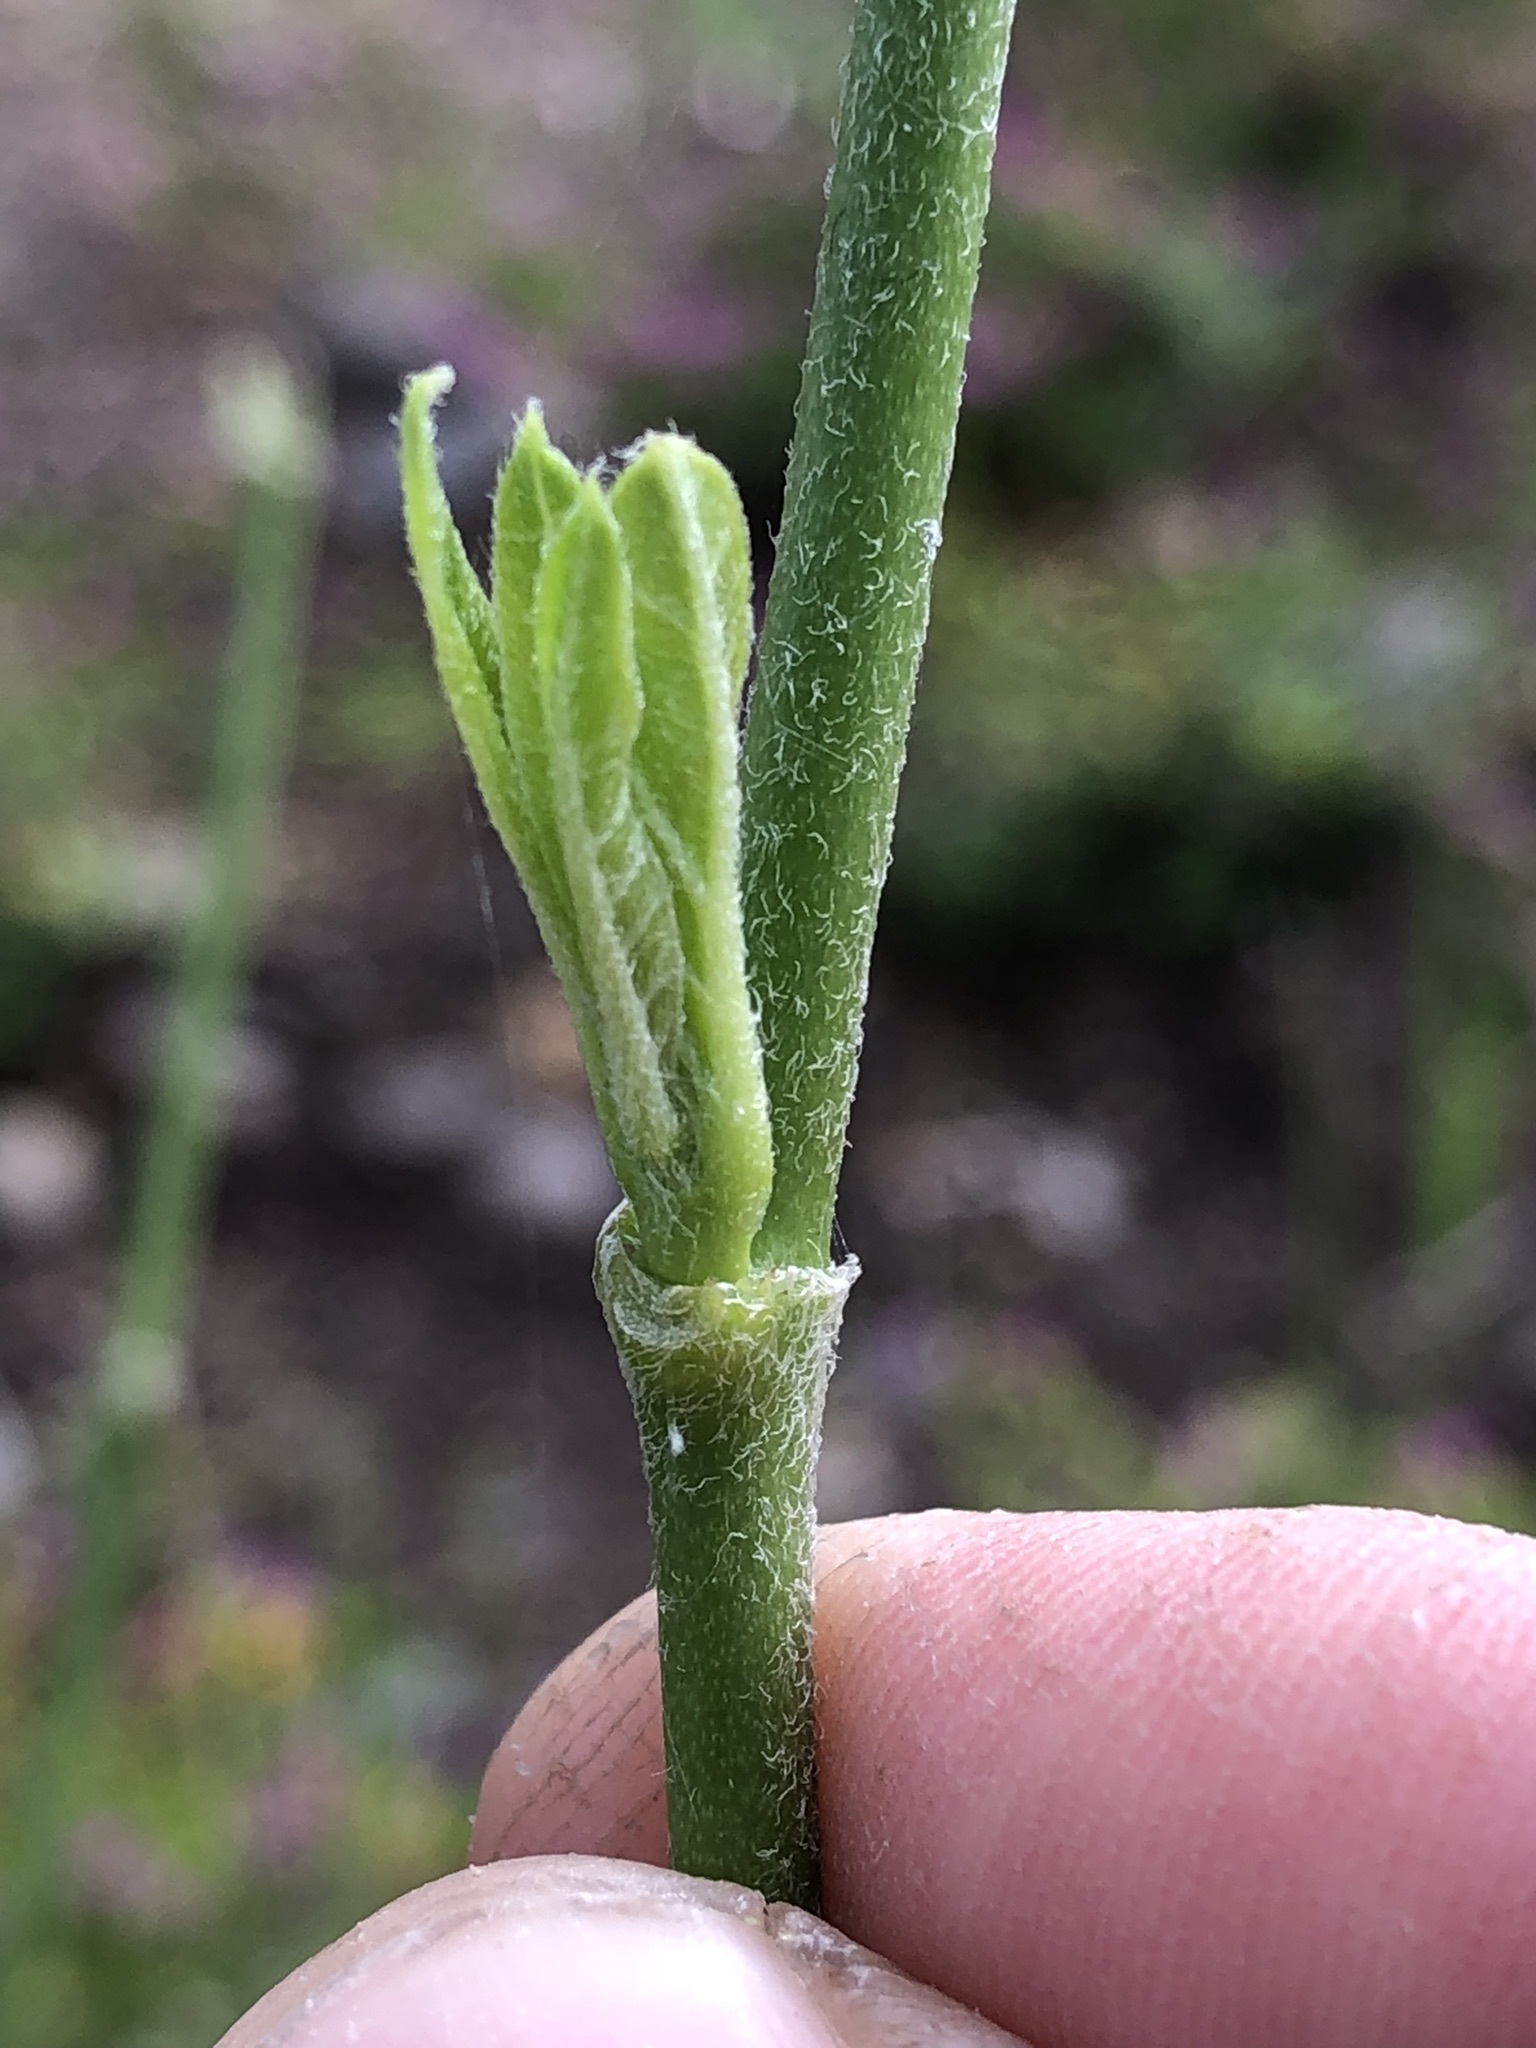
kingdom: Plantae
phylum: Tracheophyta
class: Magnoliopsida
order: Gentianales
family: Apocynaceae
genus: Asclepias
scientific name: Asclepias curassavica
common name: Bloodflower
